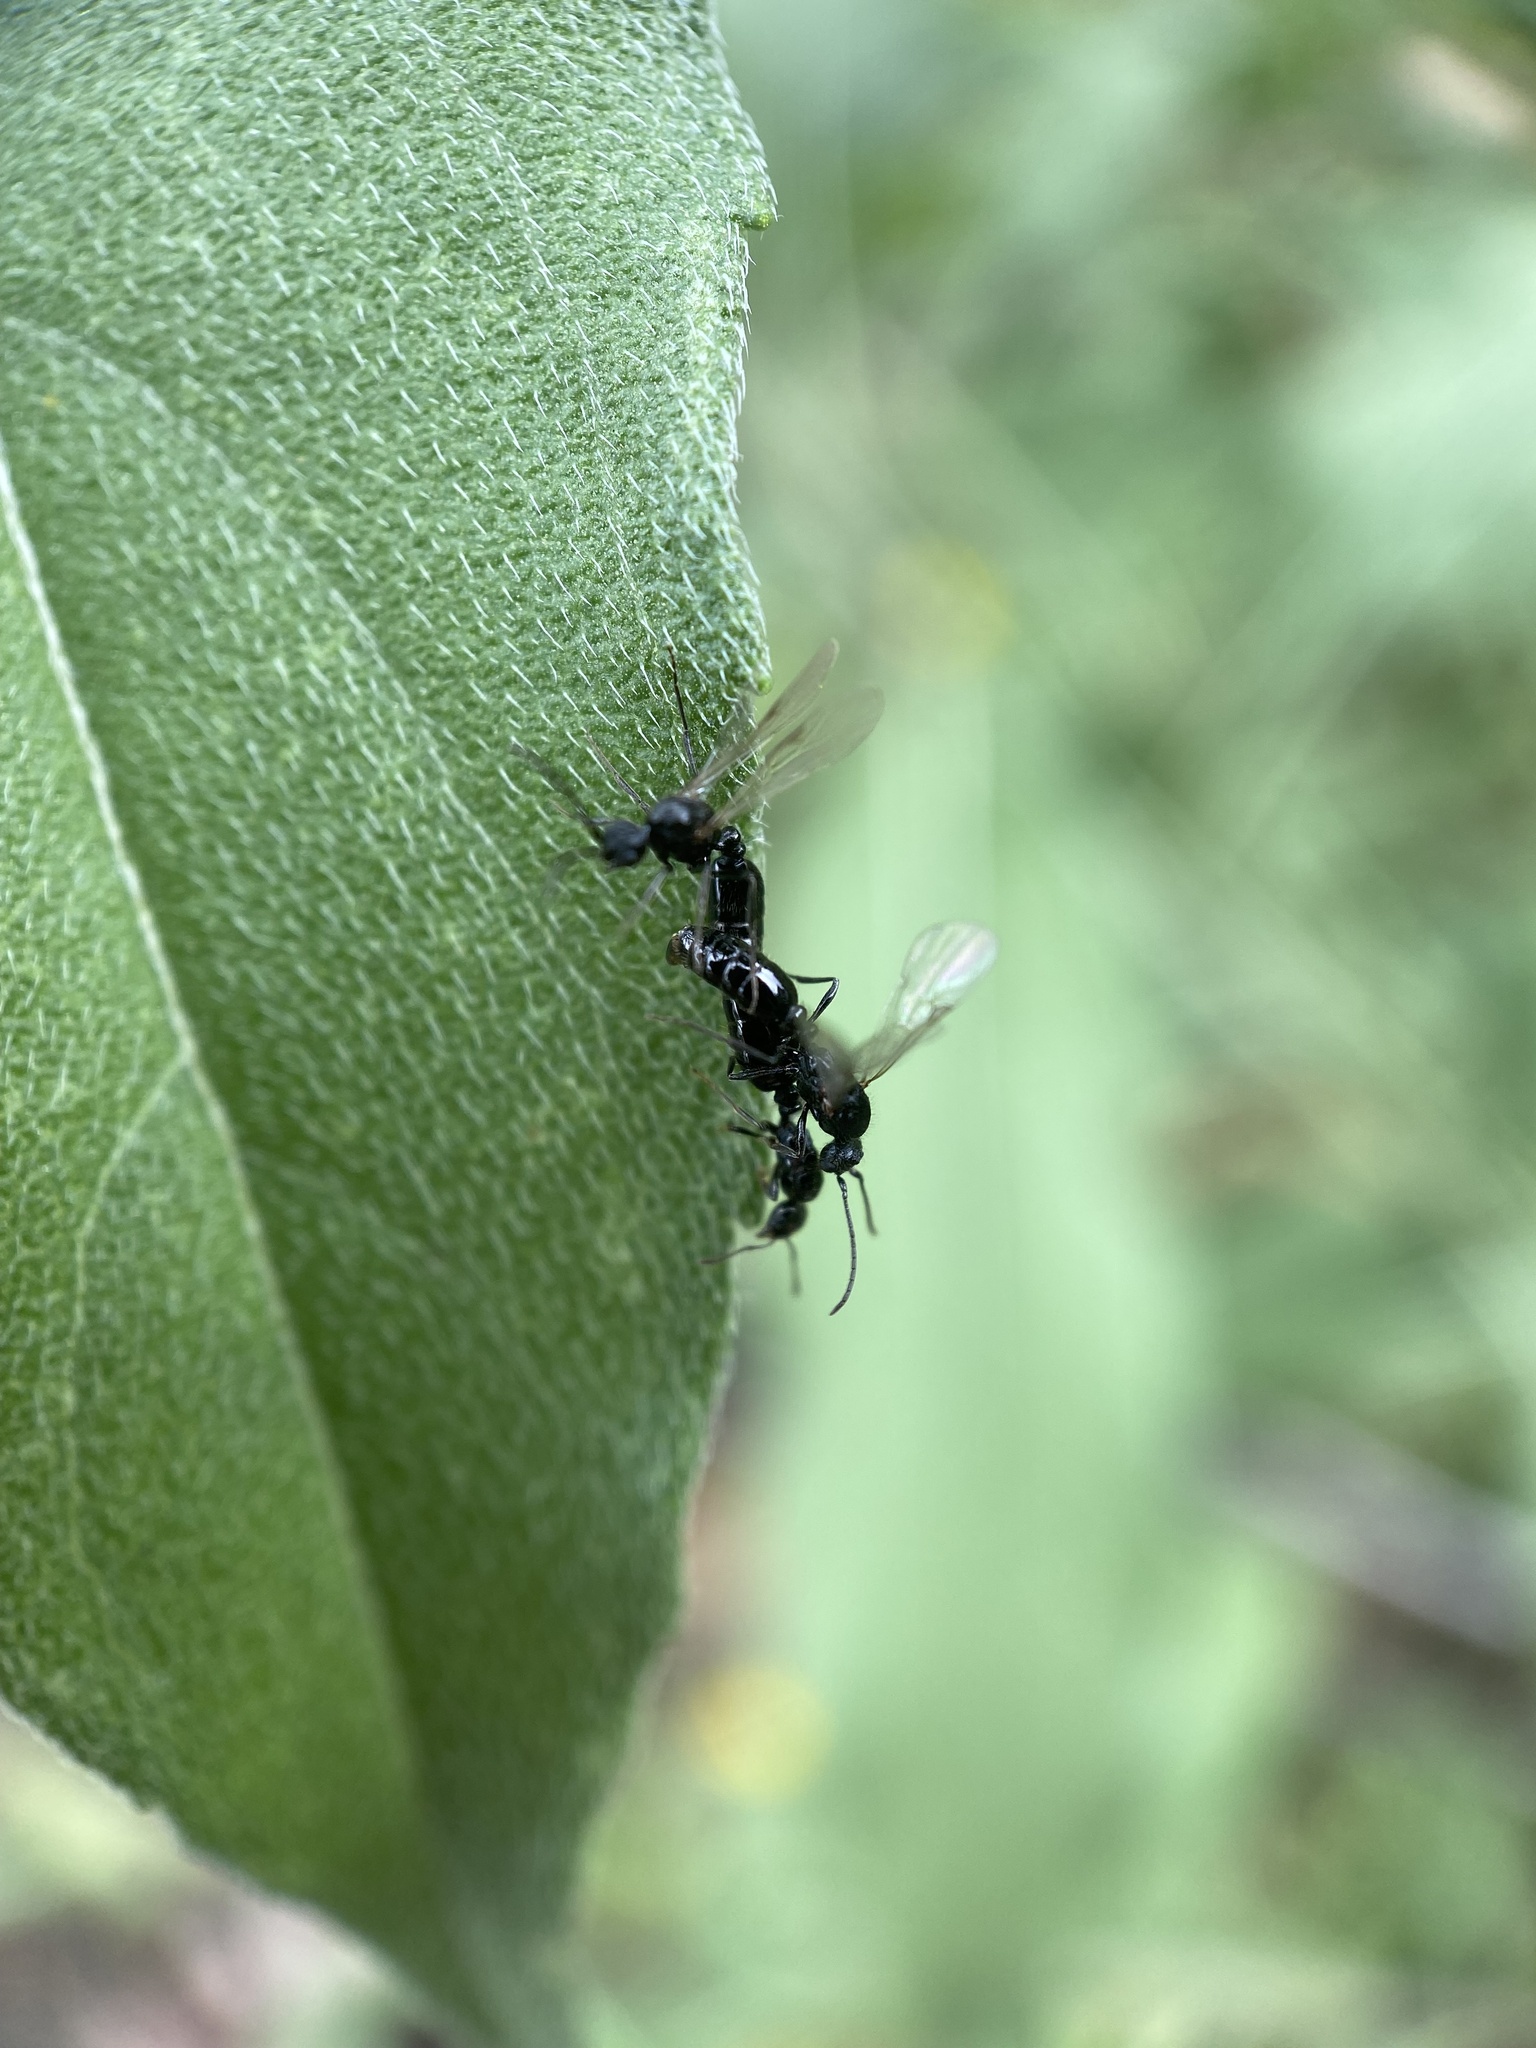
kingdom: Animalia
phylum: Arthropoda
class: Insecta
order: Hymenoptera
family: Formicidae
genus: Monomorium
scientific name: Monomorium minimum
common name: Little black ant
